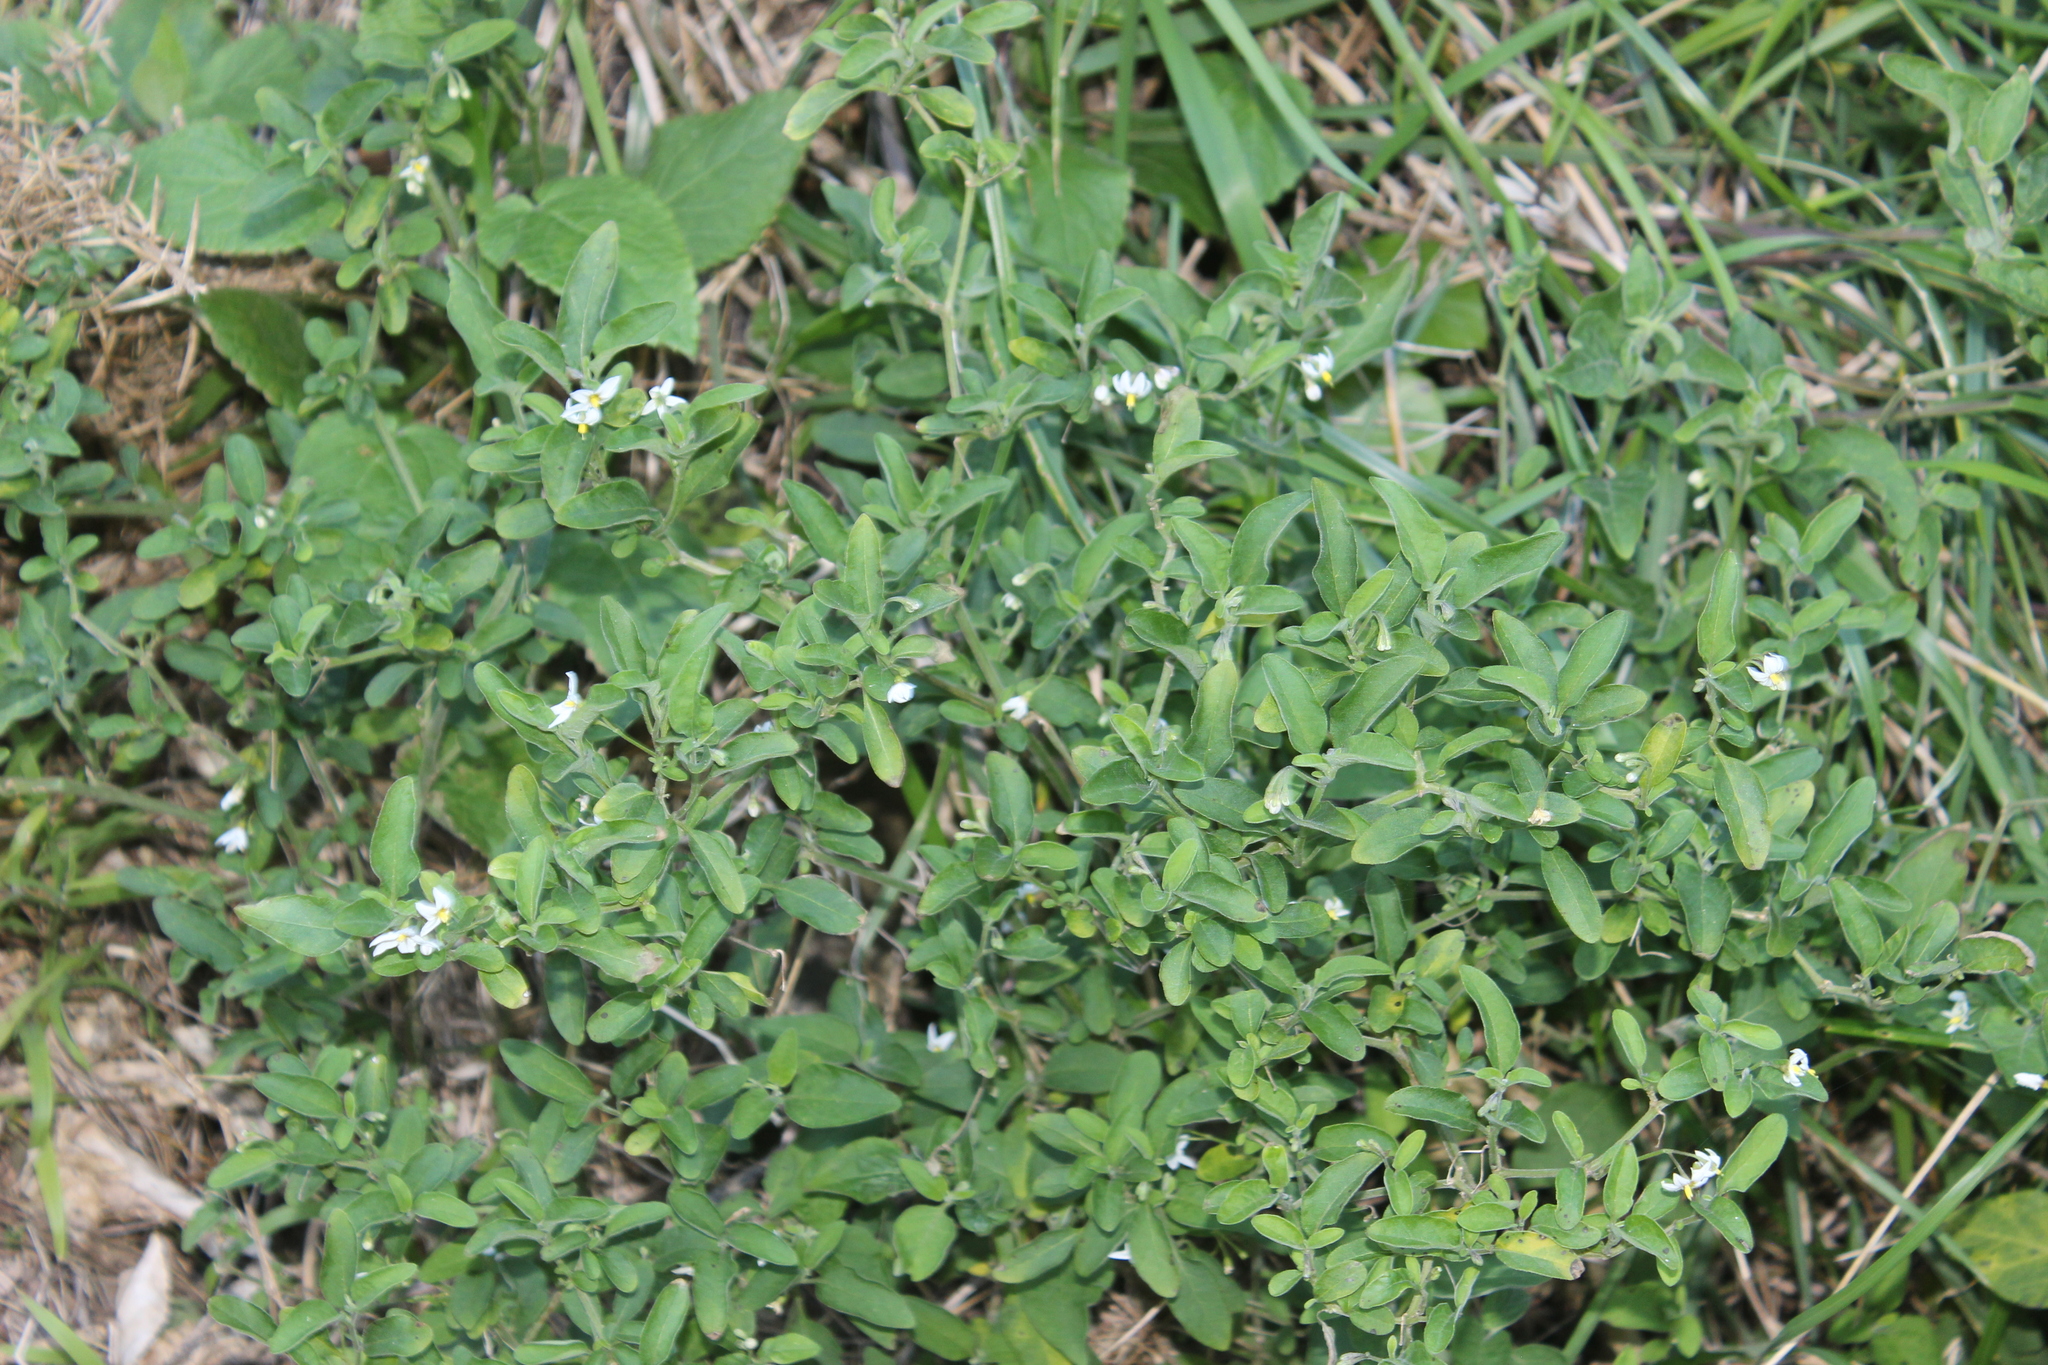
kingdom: Plantae
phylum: Tracheophyta
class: Magnoliopsida
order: Solanales
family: Solanaceae
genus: Solanum
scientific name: Solanum chenopodioides
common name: Tall nightshade
